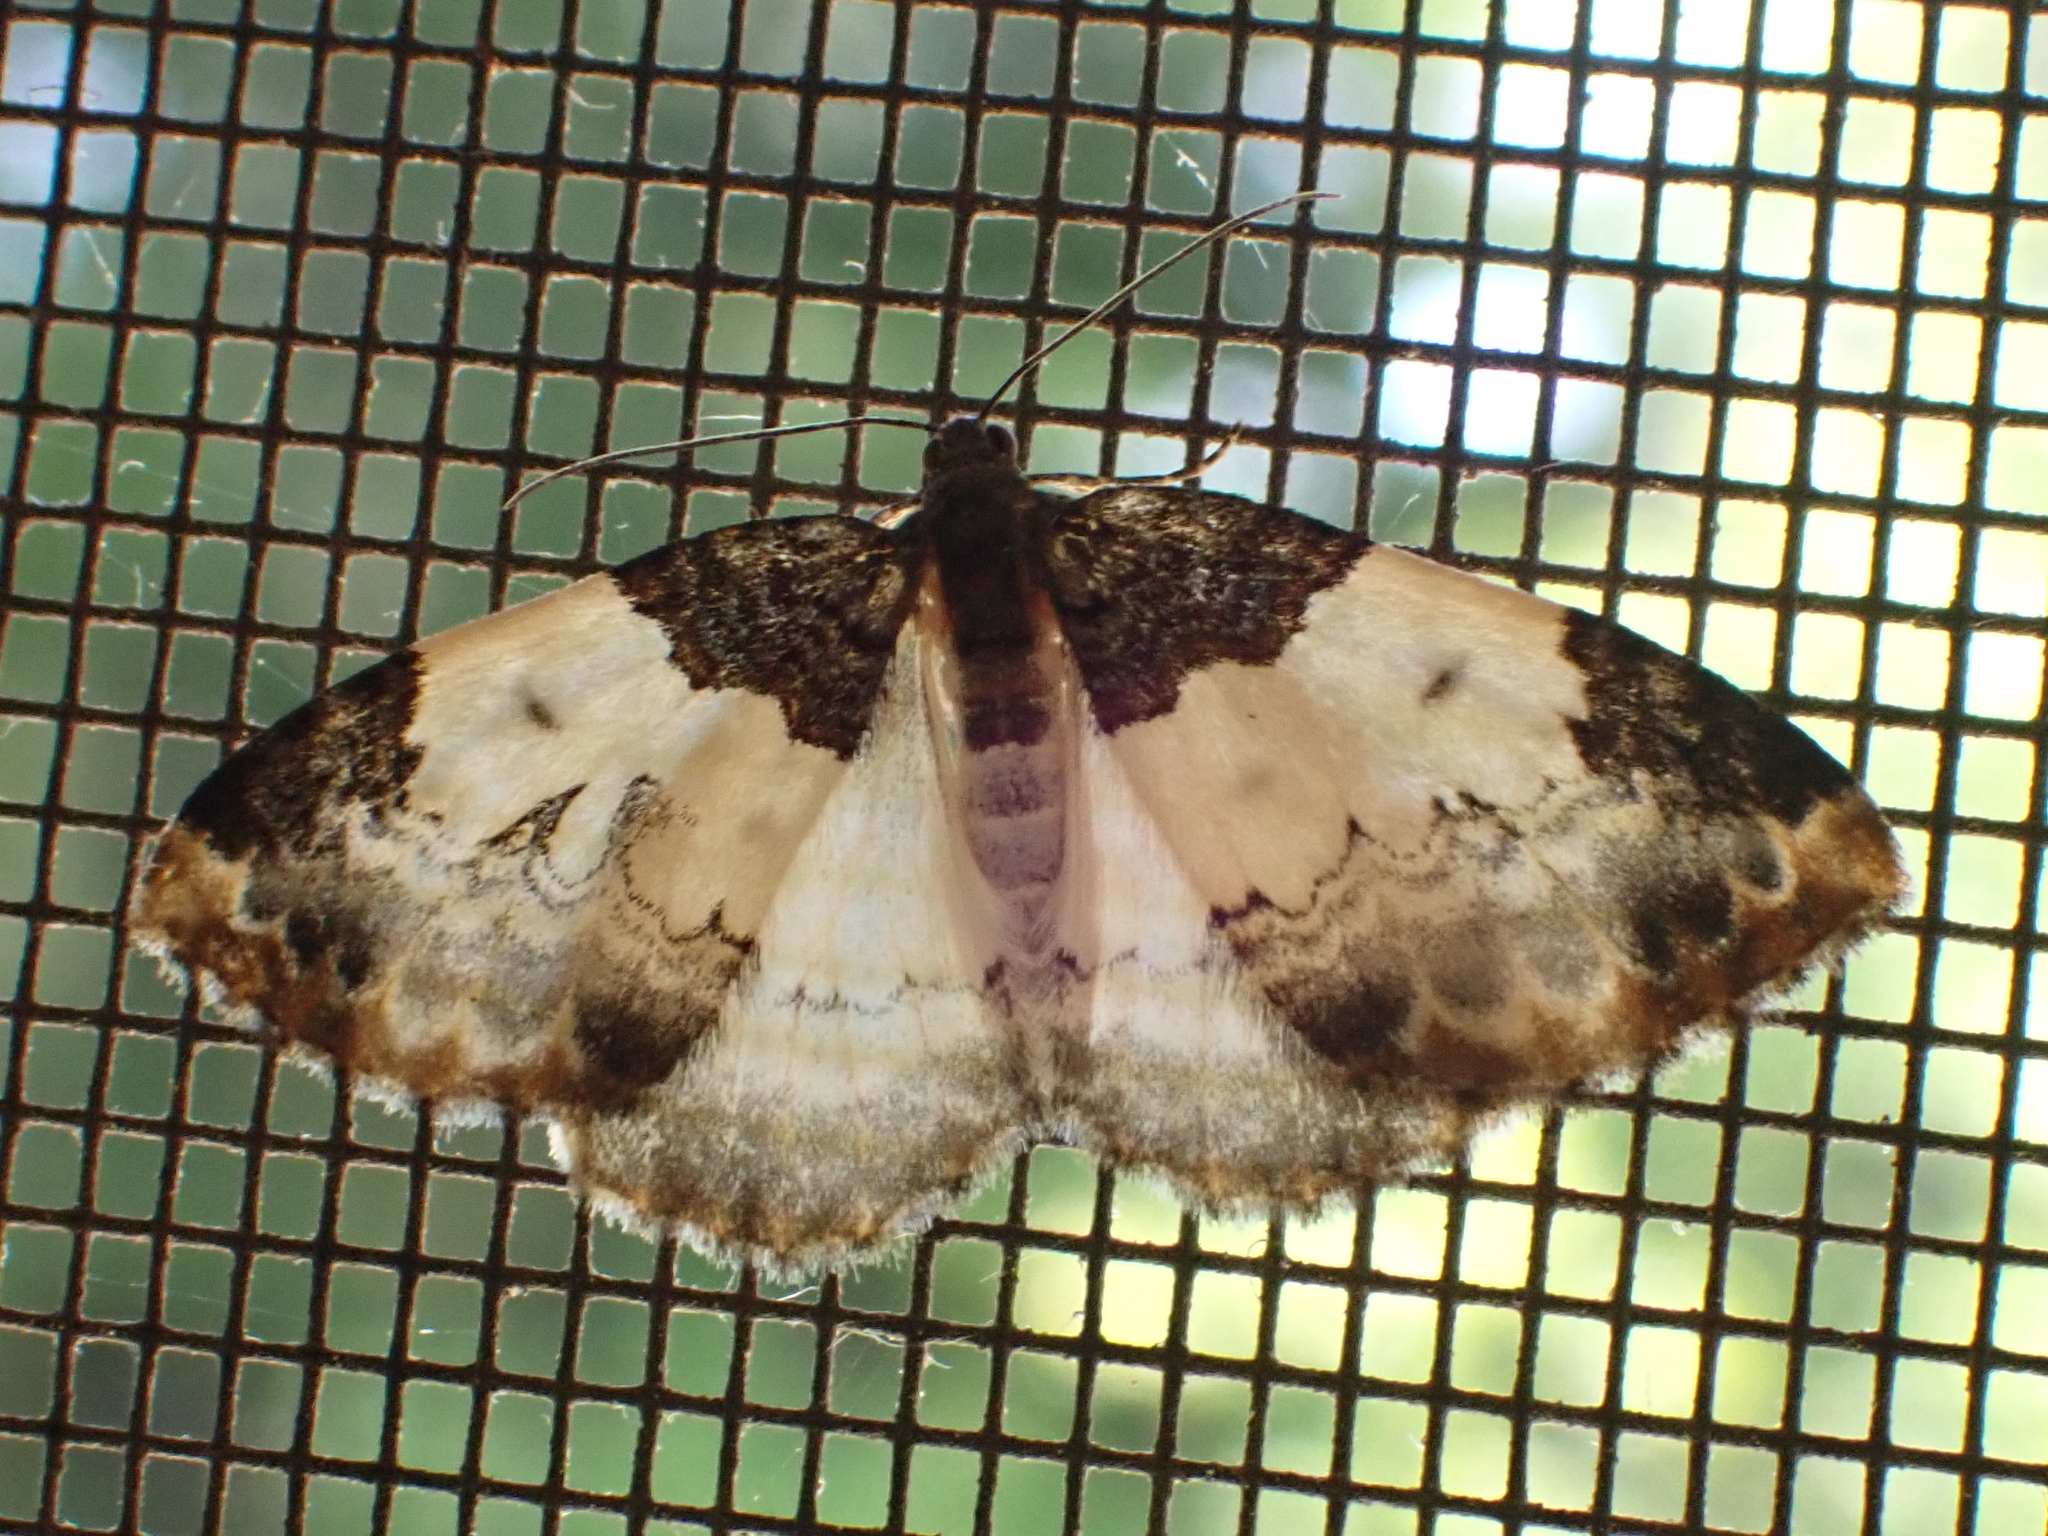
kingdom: Animalia
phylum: Arthropoda
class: Insecta
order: Lepidoptera
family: Geometridae
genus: Mesoleuca
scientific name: Mesoleuca ruficillata
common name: White-ribboned carpet moth
